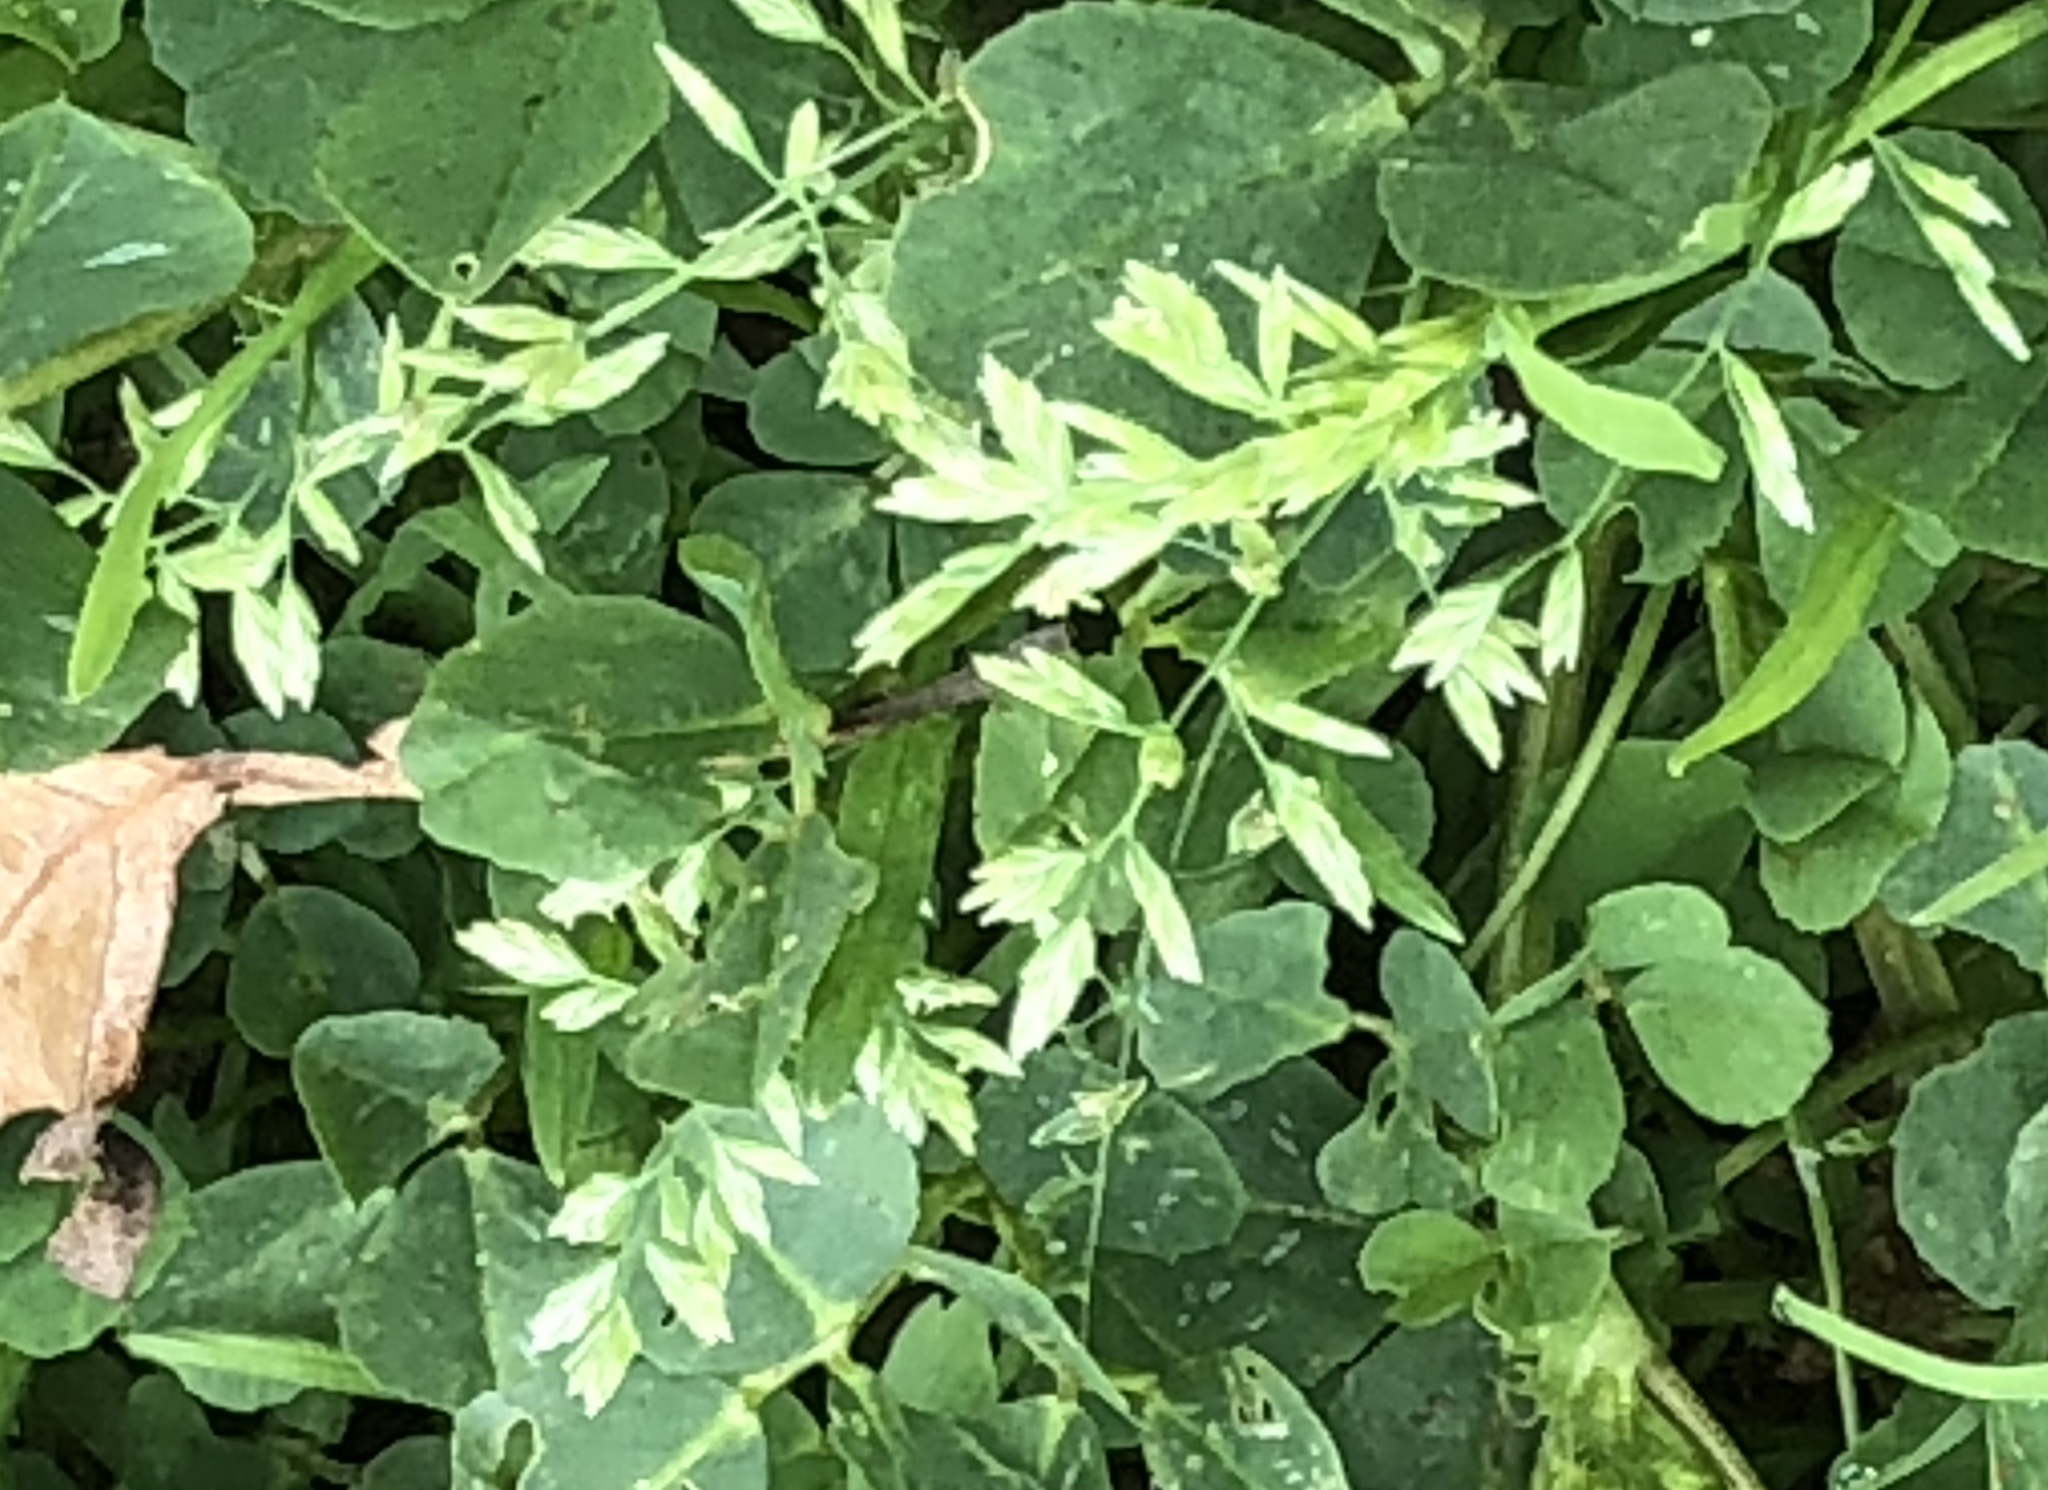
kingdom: Plantae
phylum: Tracheophyta
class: Liliopsida
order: Poales
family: Poaceae
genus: Poa
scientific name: Poa annua
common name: Annual bluegrass
